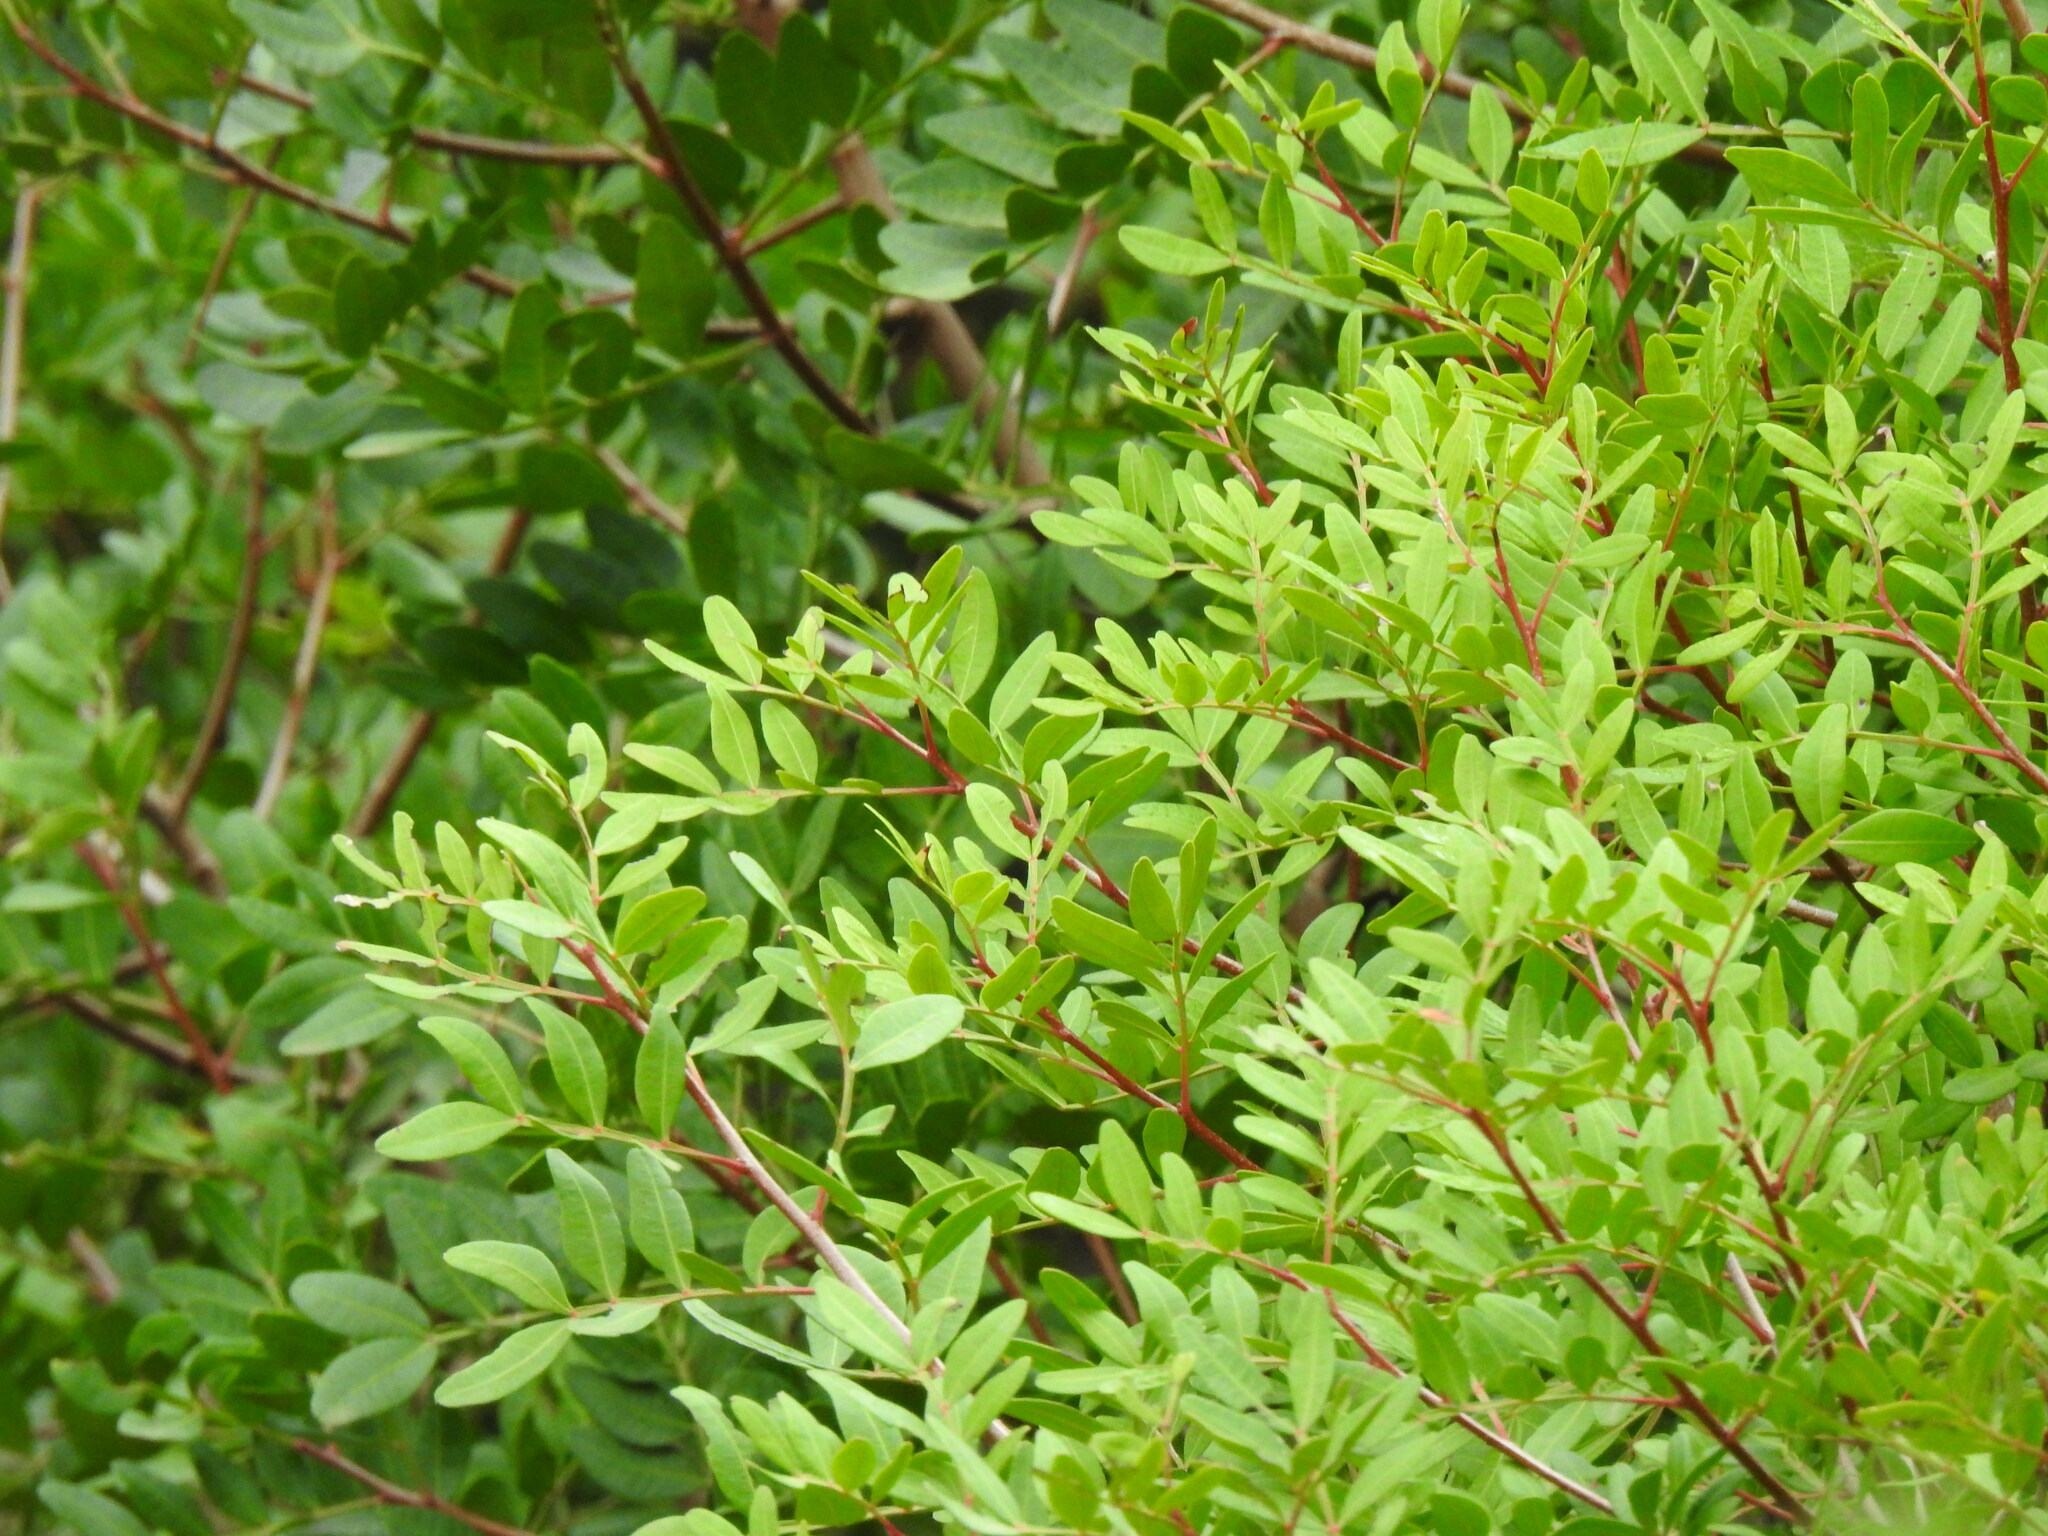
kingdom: Plantae
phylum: Tracheophyta
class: Magnoliopsida
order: Sapindales
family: Anacardiaceae
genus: Pistacia
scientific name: Pistacia lentiscus
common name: Lentisk
